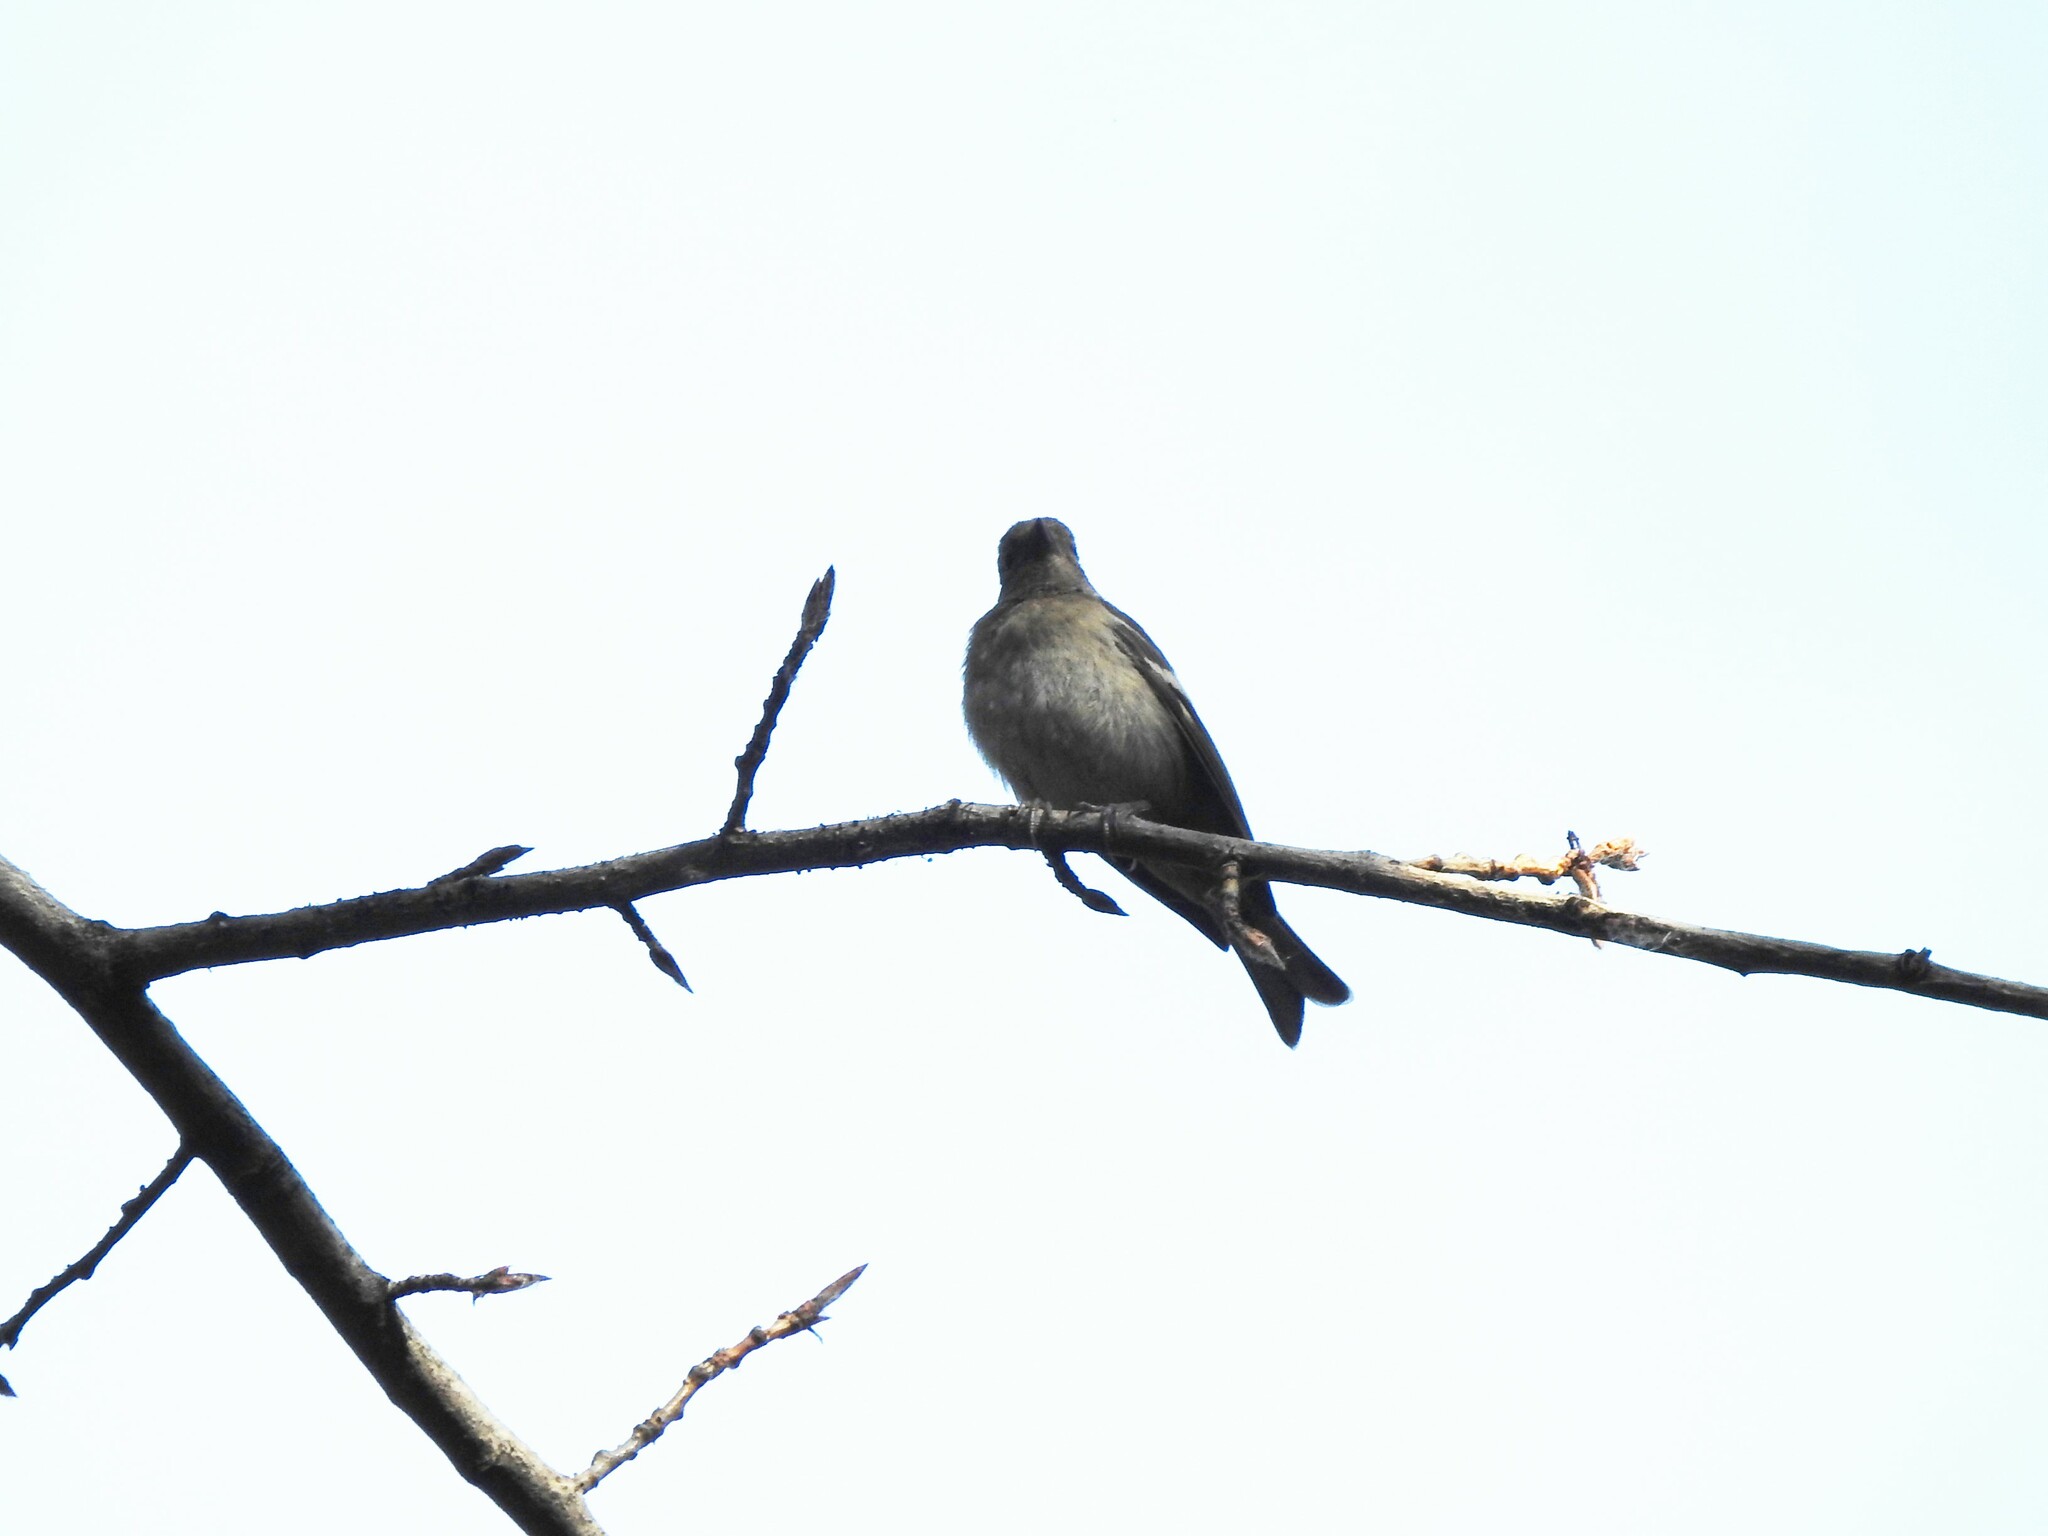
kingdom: Animalia
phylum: Chordata
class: Aves
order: Passeriformes
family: Fringillidae
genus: Fringilla
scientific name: Fringilla coelebs
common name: Common chaffinch
